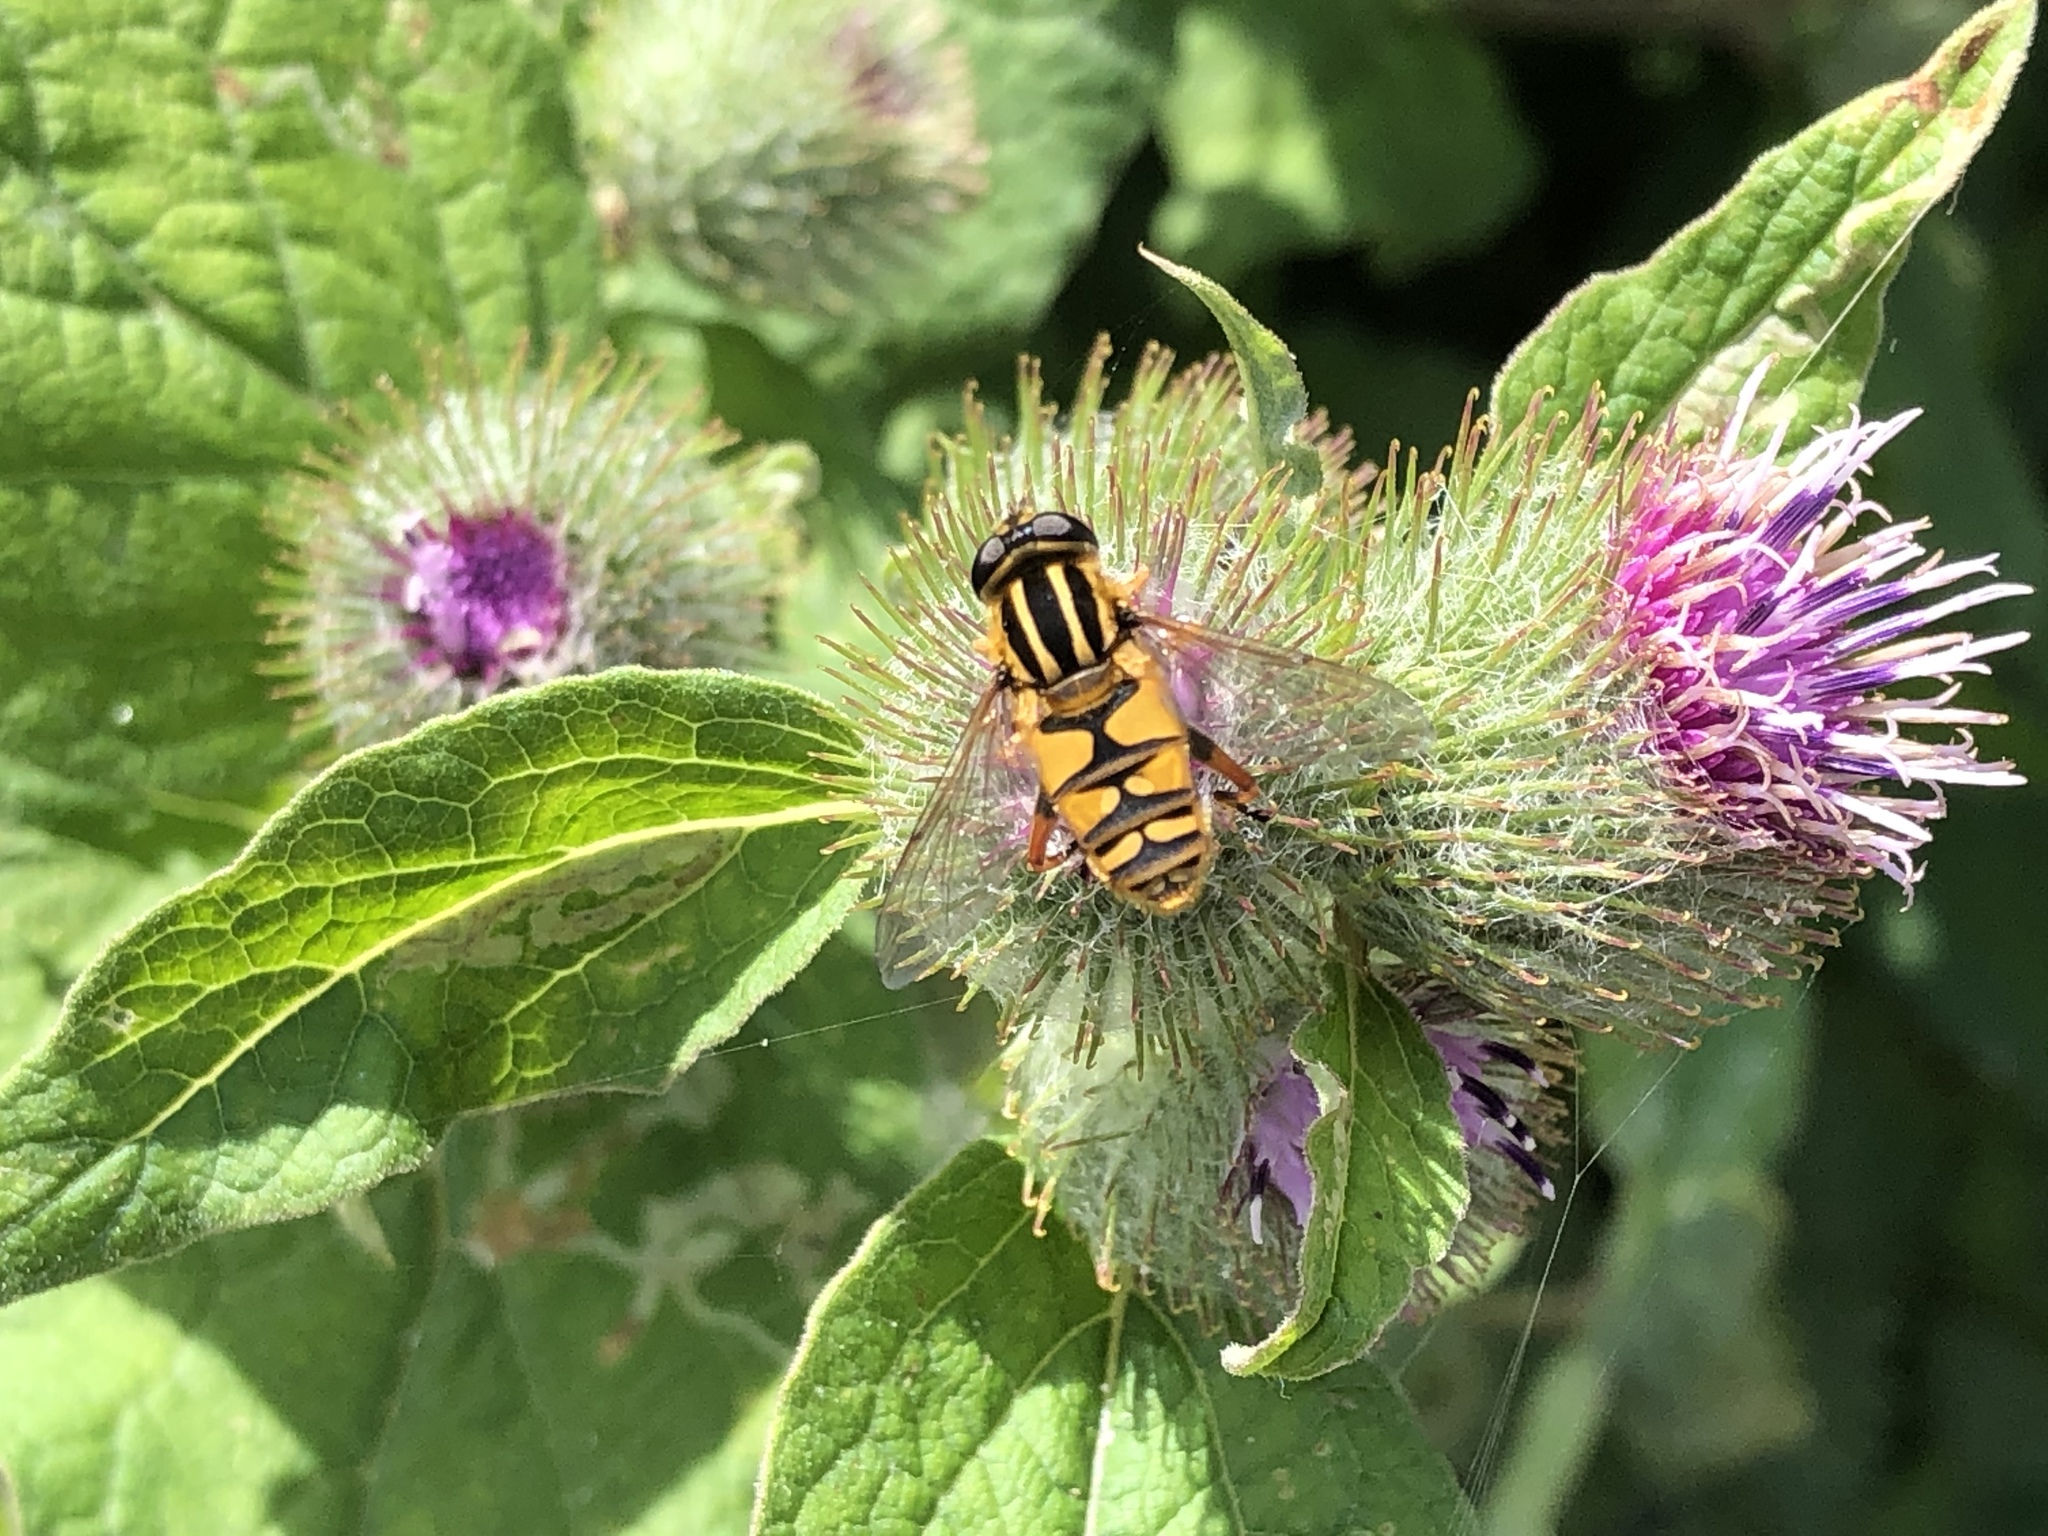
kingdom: Animalia
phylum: Arthropoda
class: Insecta
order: Diptera
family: Syrphidae
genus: Helophilus
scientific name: Helophilus pendulus
